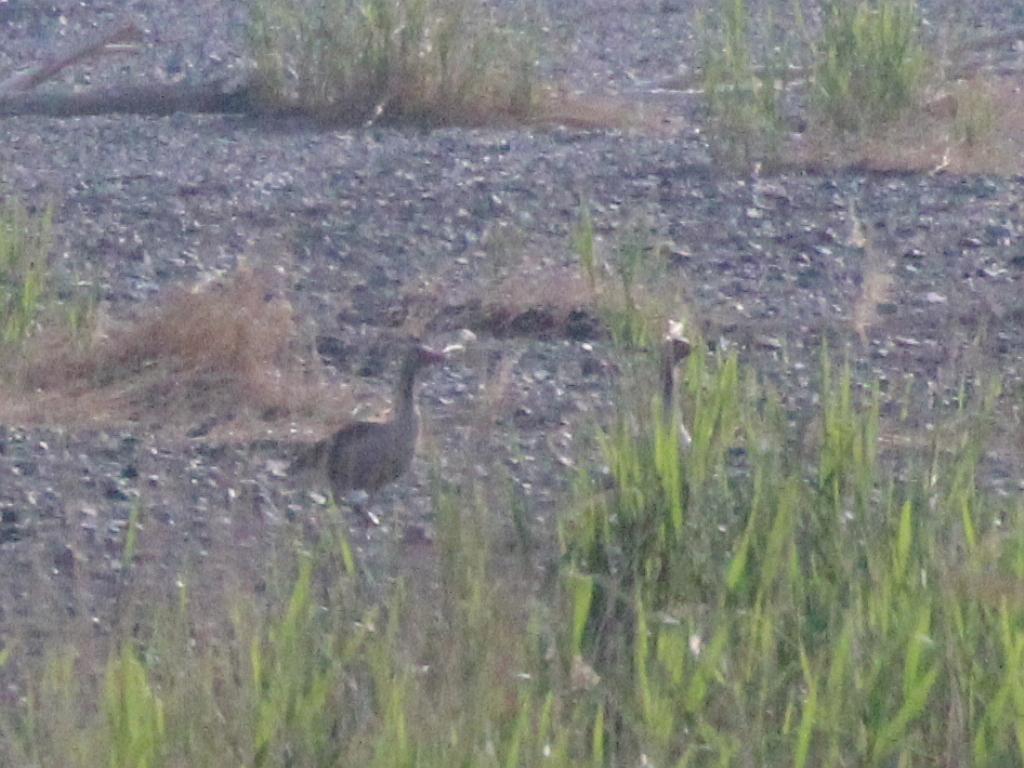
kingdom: Animalia
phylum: Chordata
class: Aves
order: Anseriformes
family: Anatidae
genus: Anser
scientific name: Anser anser
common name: Greylag goose
